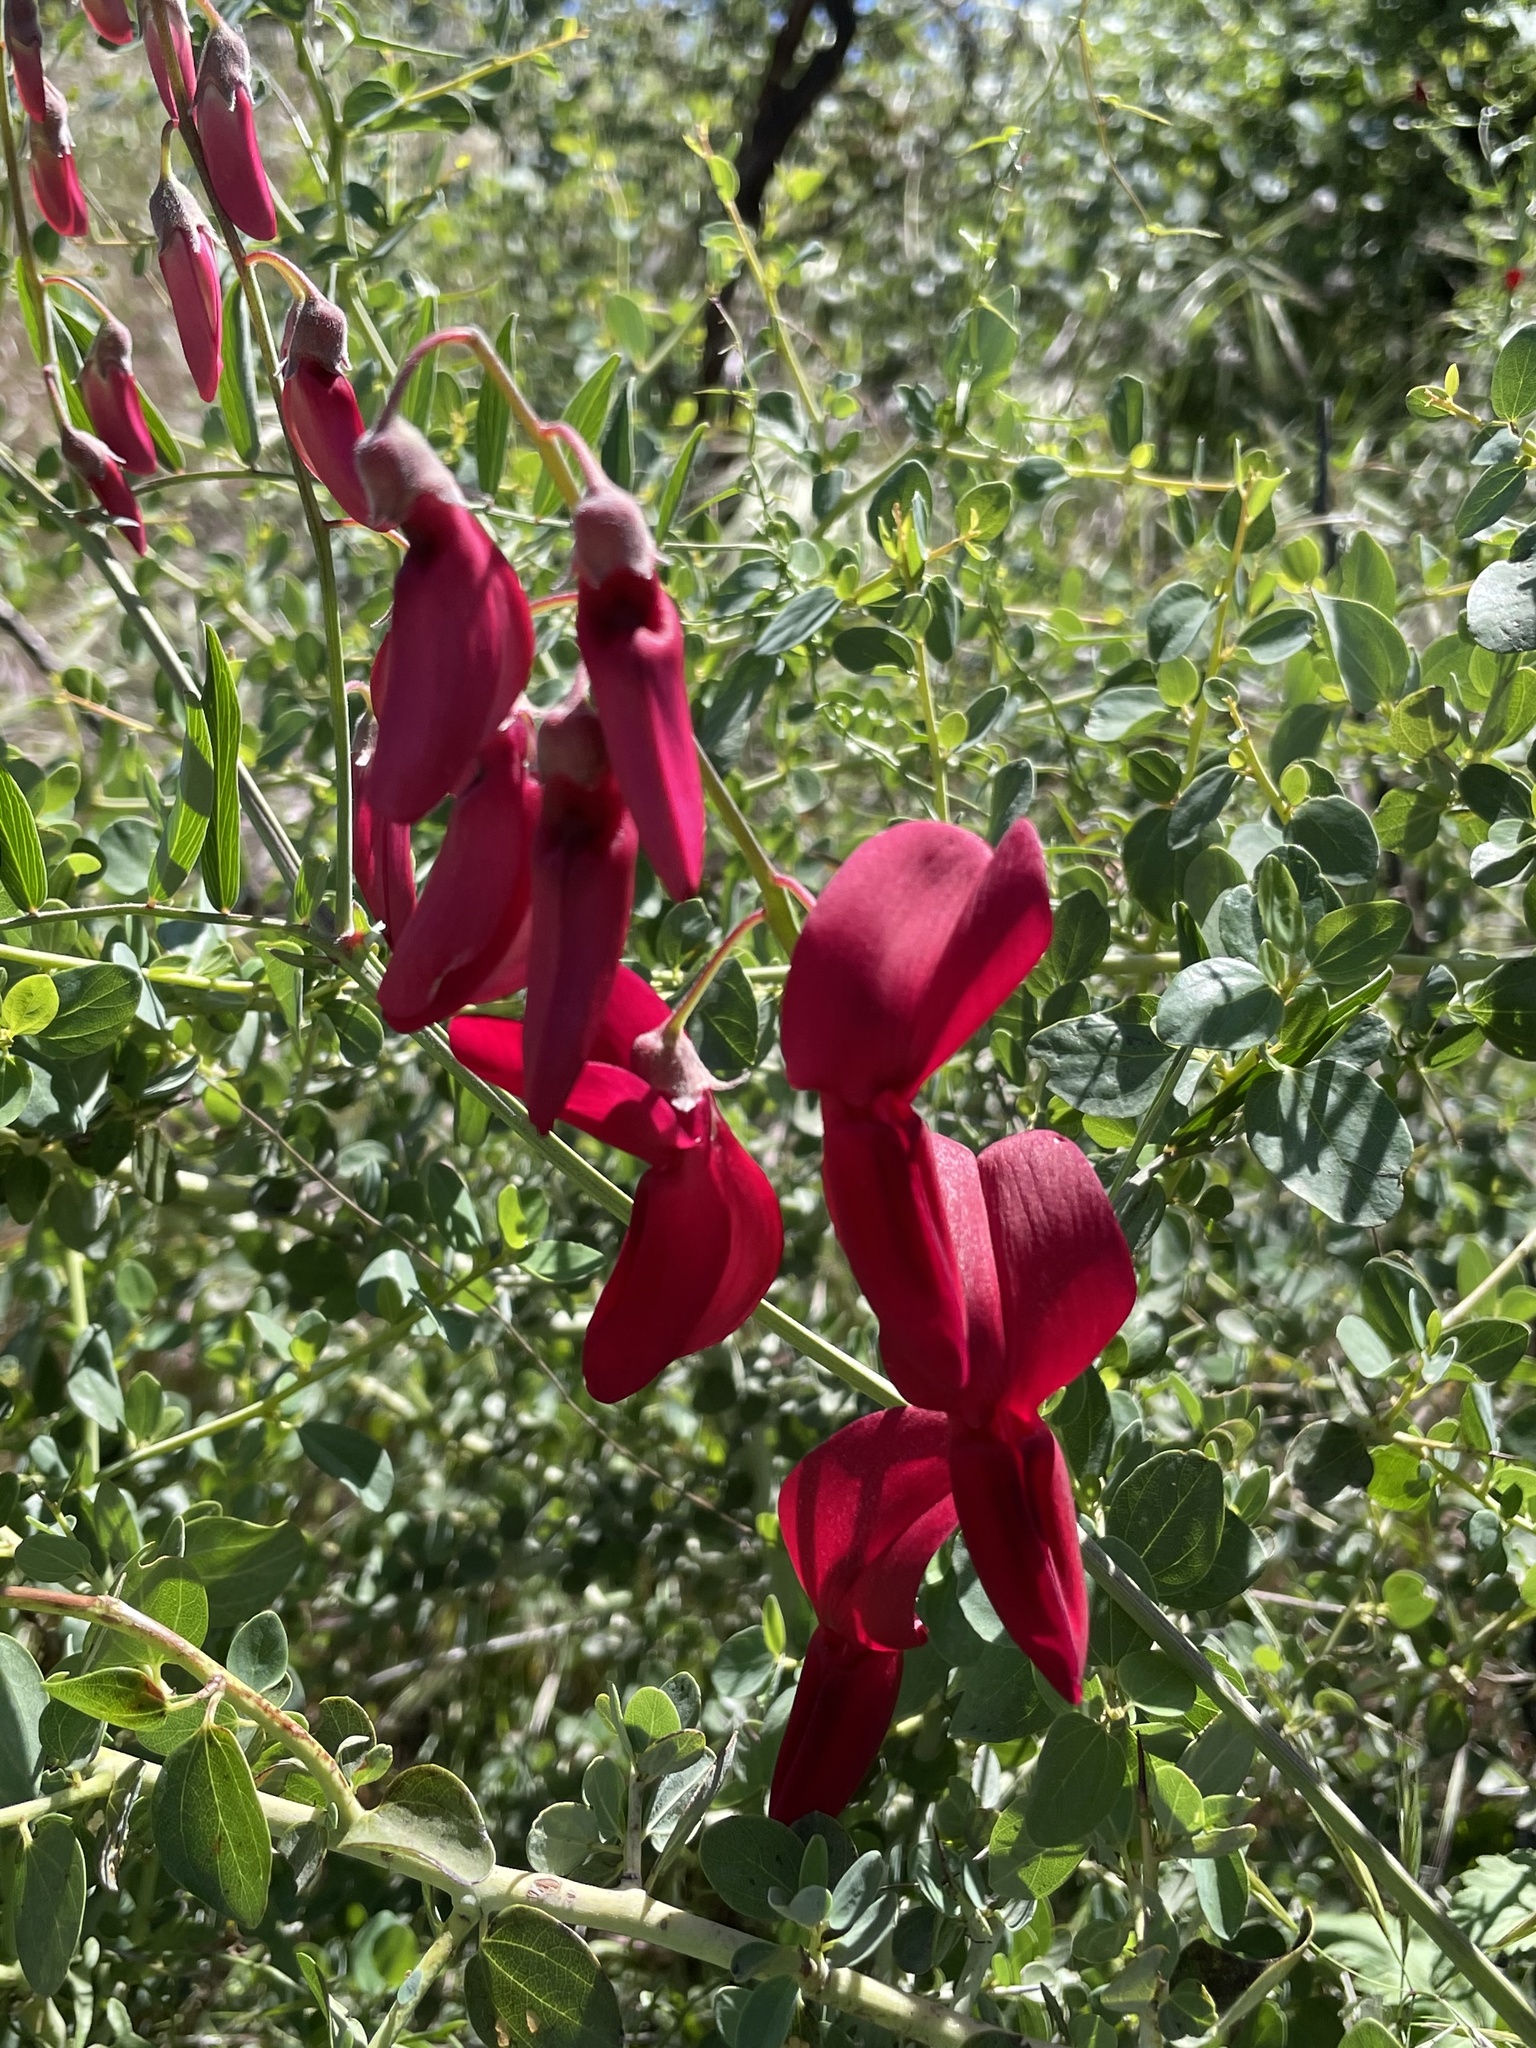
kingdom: Plantae
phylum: Tracheophyta
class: Magnoliopsida
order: Fabales
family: Fabaceae
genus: Lathyrus
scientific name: Lathyrus splendens
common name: Campo-pea
